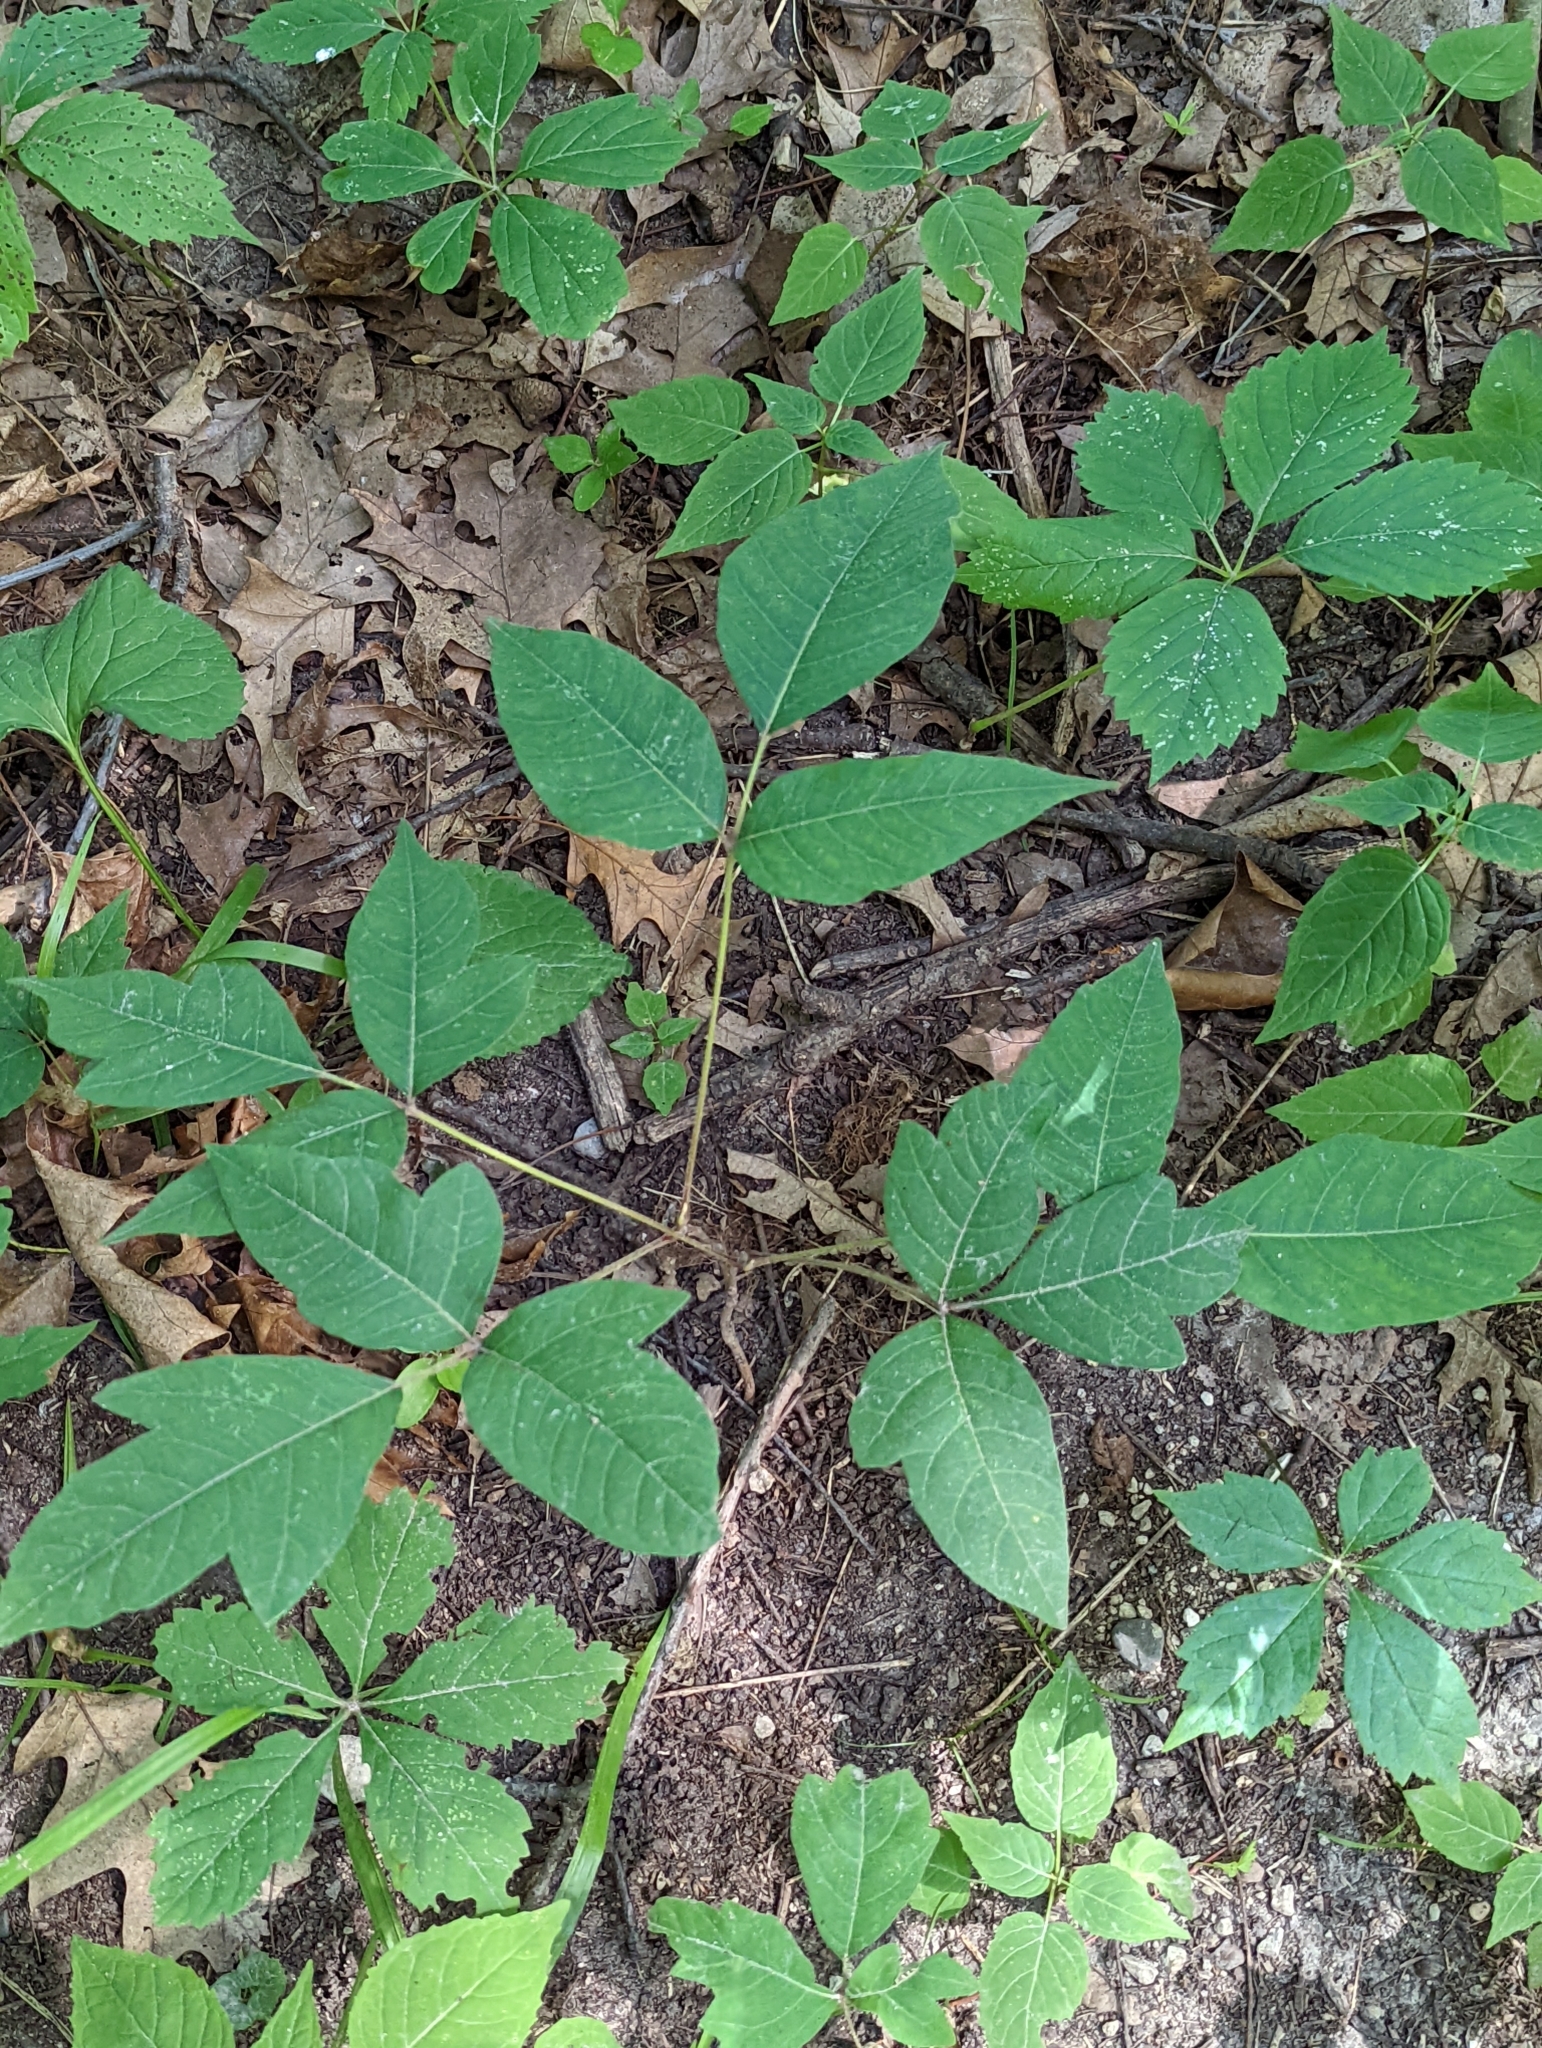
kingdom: Plantae
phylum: Tracheophyta
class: Magnoliopsida
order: Sapindales
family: Anacardiaceae
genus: Toxicodendron
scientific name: Toxicodendron radicans
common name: Poison ivy
